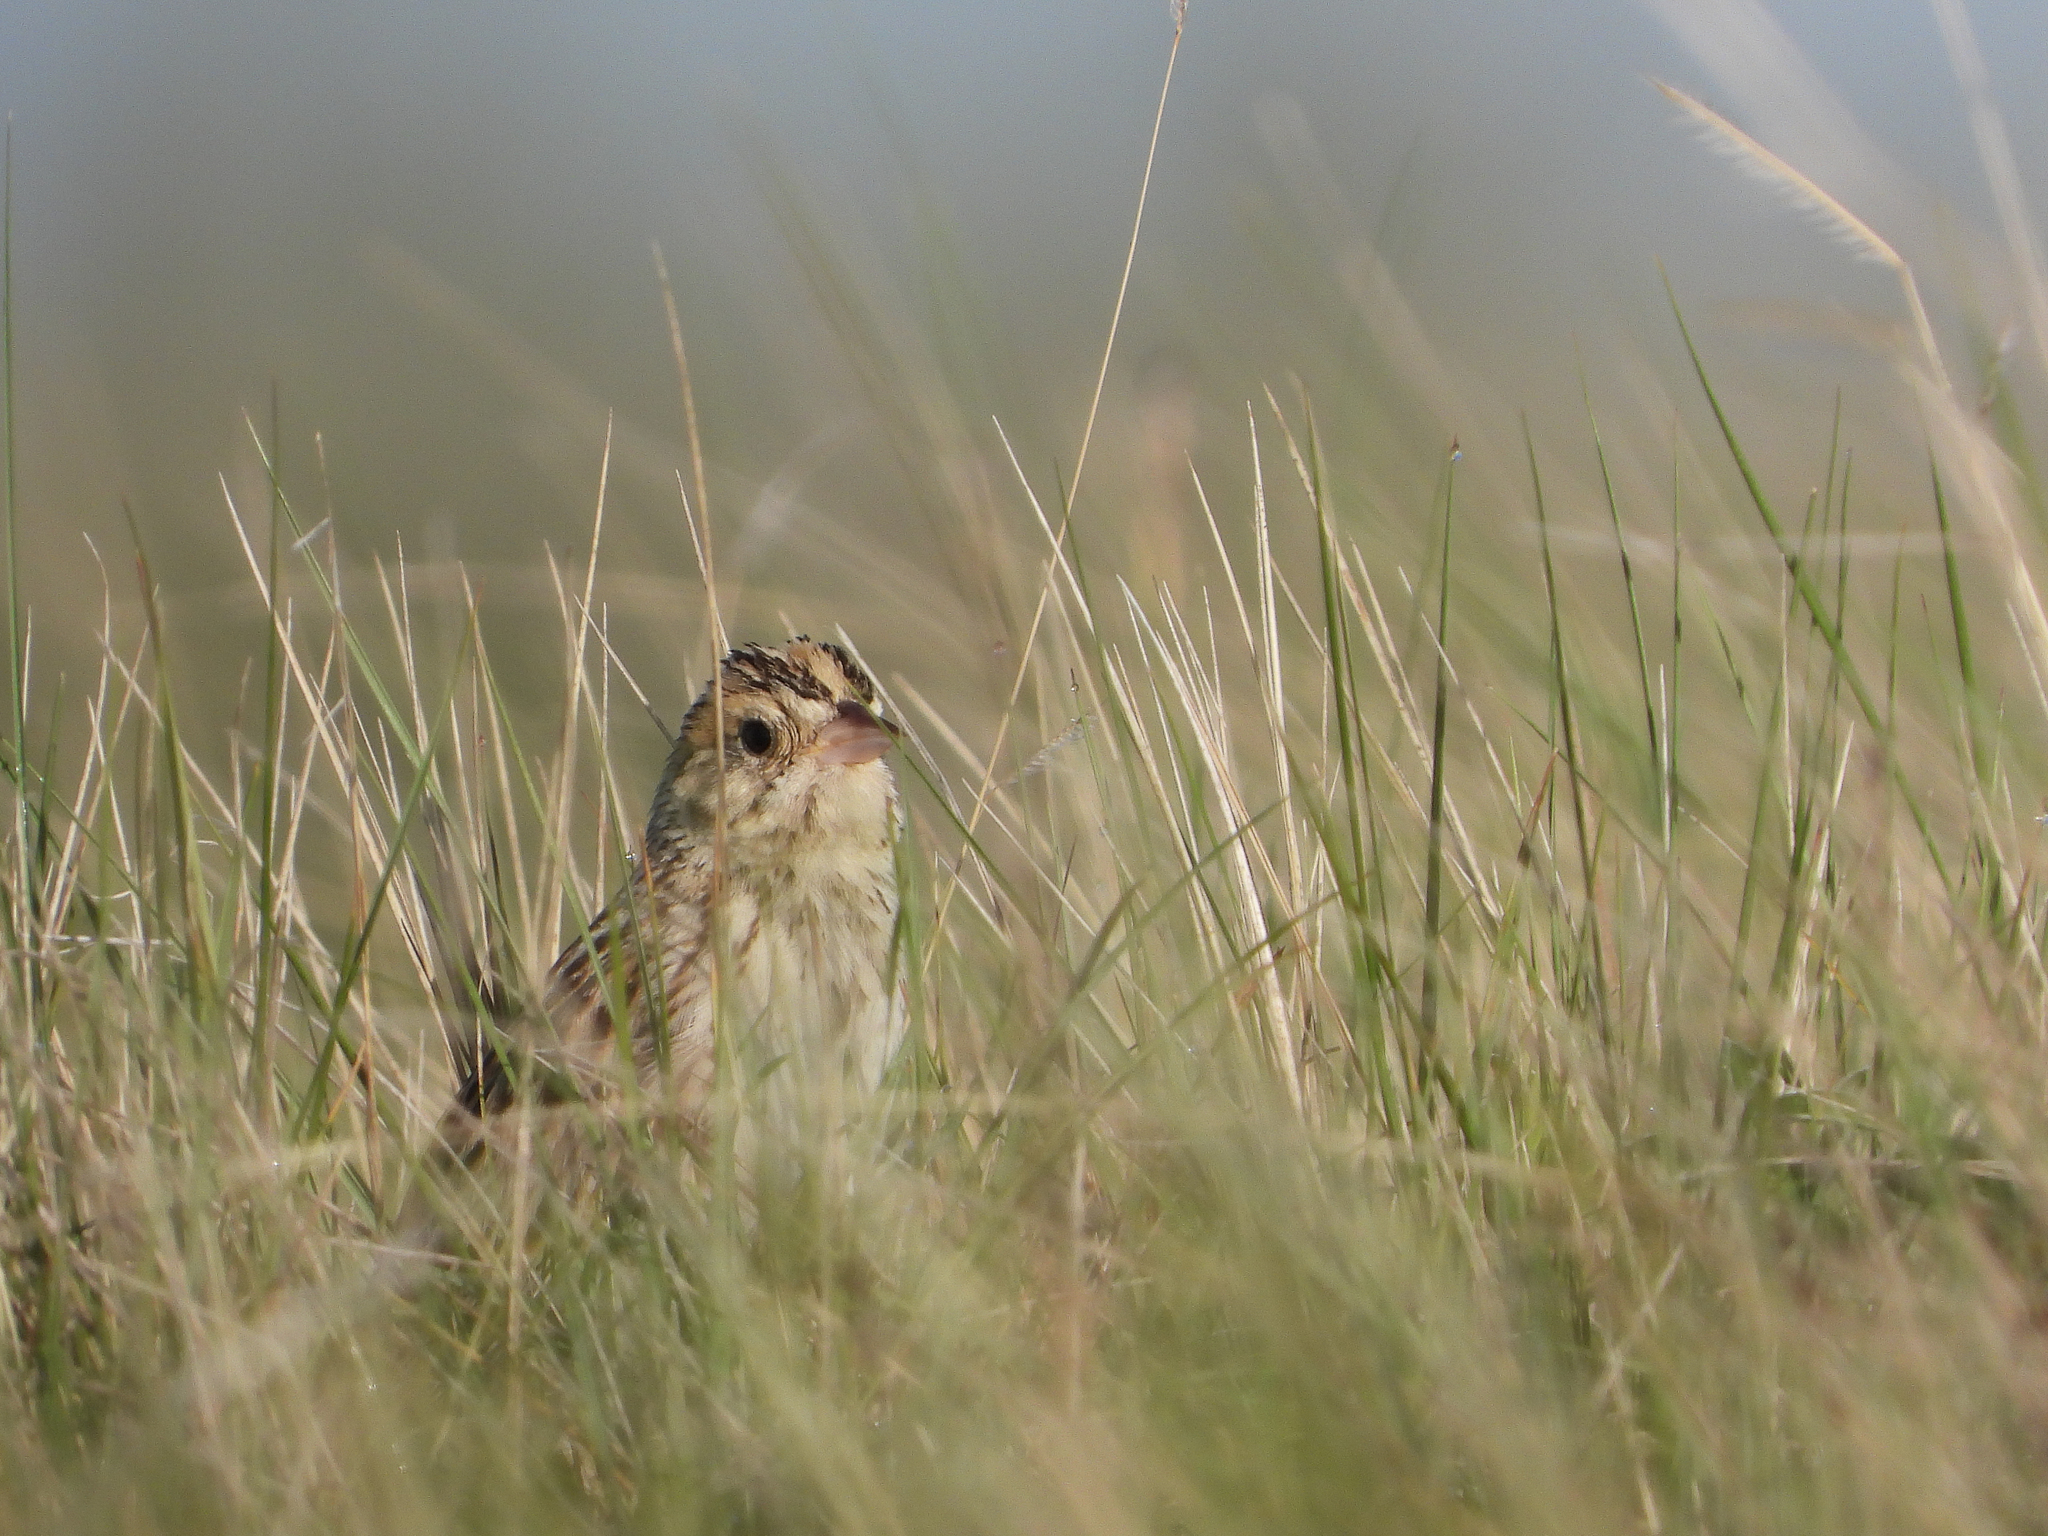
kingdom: Animalia
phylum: Chordata
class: Aves
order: Passeriformes
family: Passerellidae
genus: Centronyx
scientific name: Centronyx bairdii
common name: Baird's sparrow
